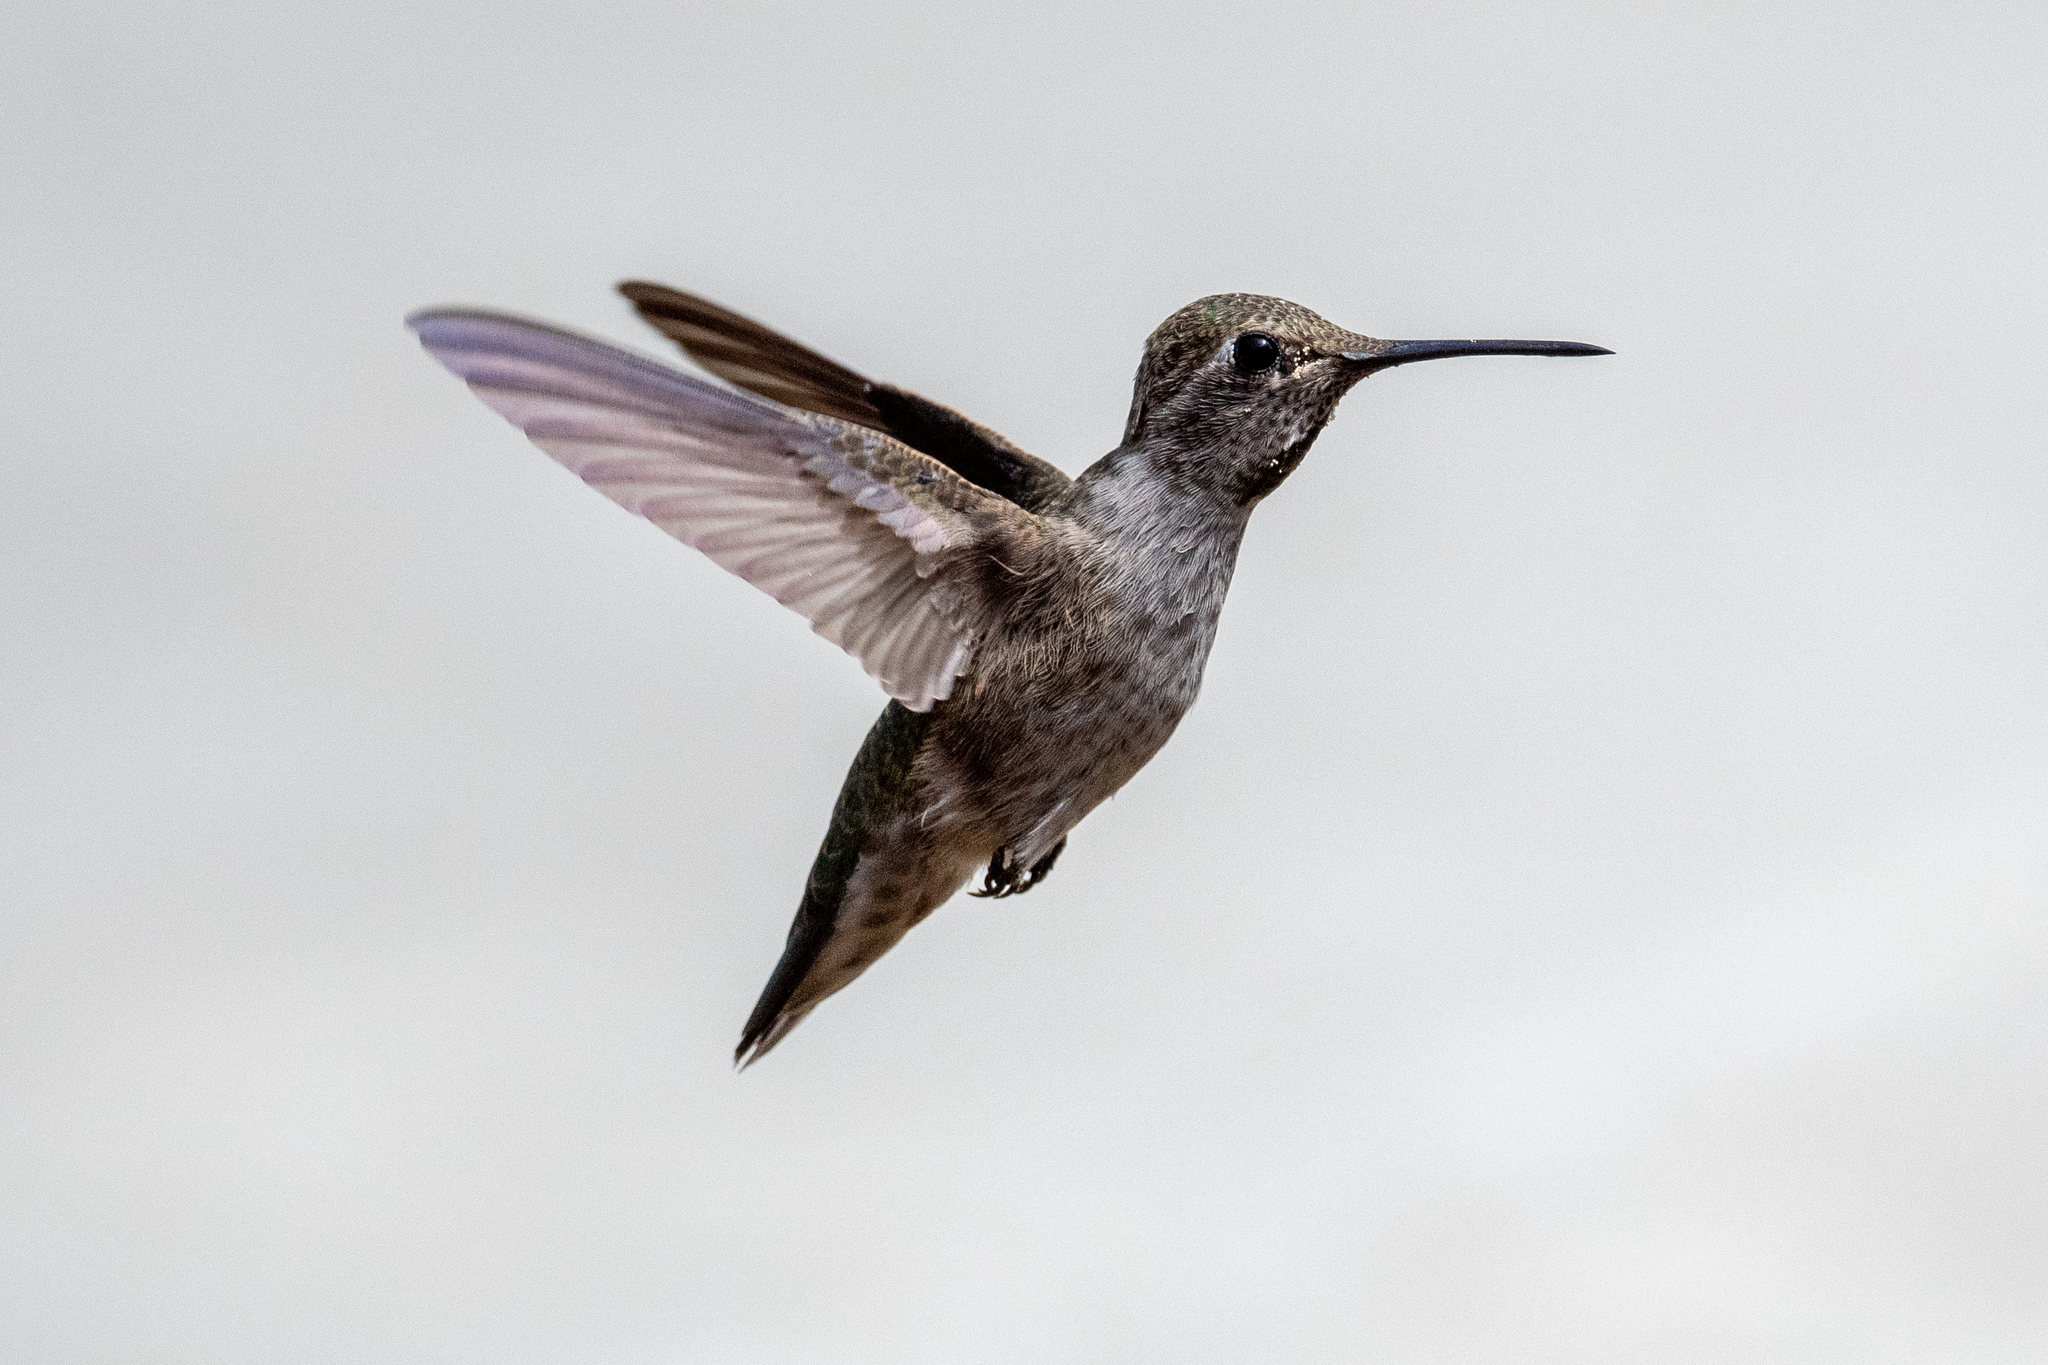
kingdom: Animalia
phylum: Chordata
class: Aves
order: Apodiformes
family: Trochilidae
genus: Calypte
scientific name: Calypte anna
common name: Anna's hummingbird
